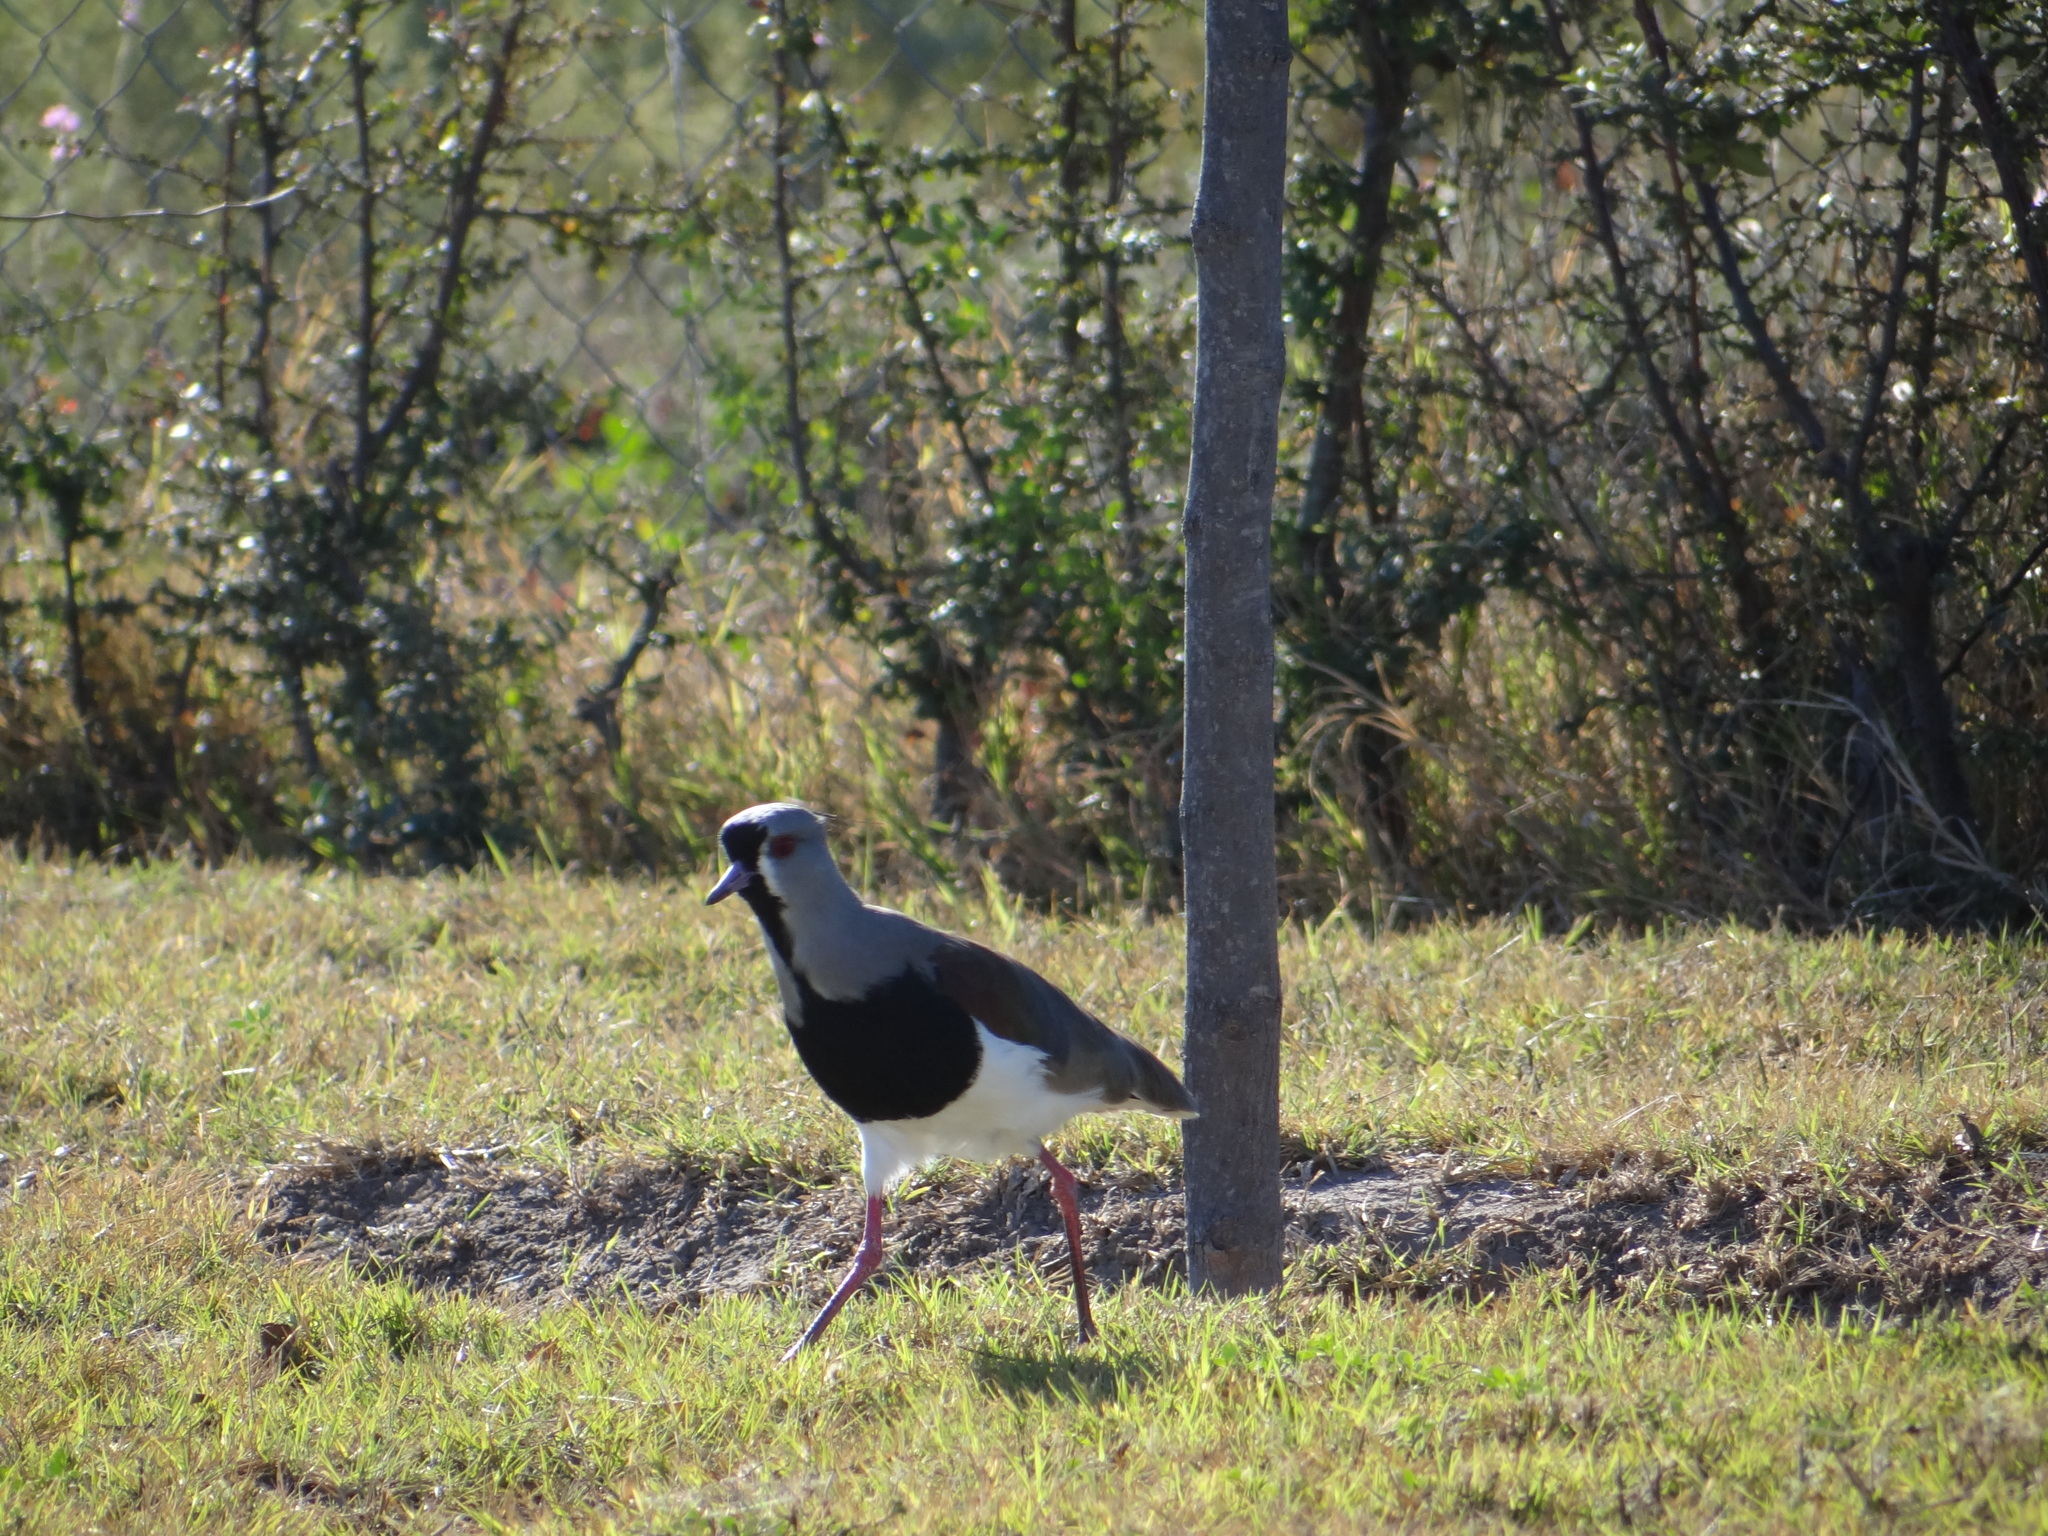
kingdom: Animalia
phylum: Chordata
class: Aves
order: Charadriiformes
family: Charadriidae
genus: Vanellus
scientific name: Vanellus chilensis
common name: Southern lapwing
